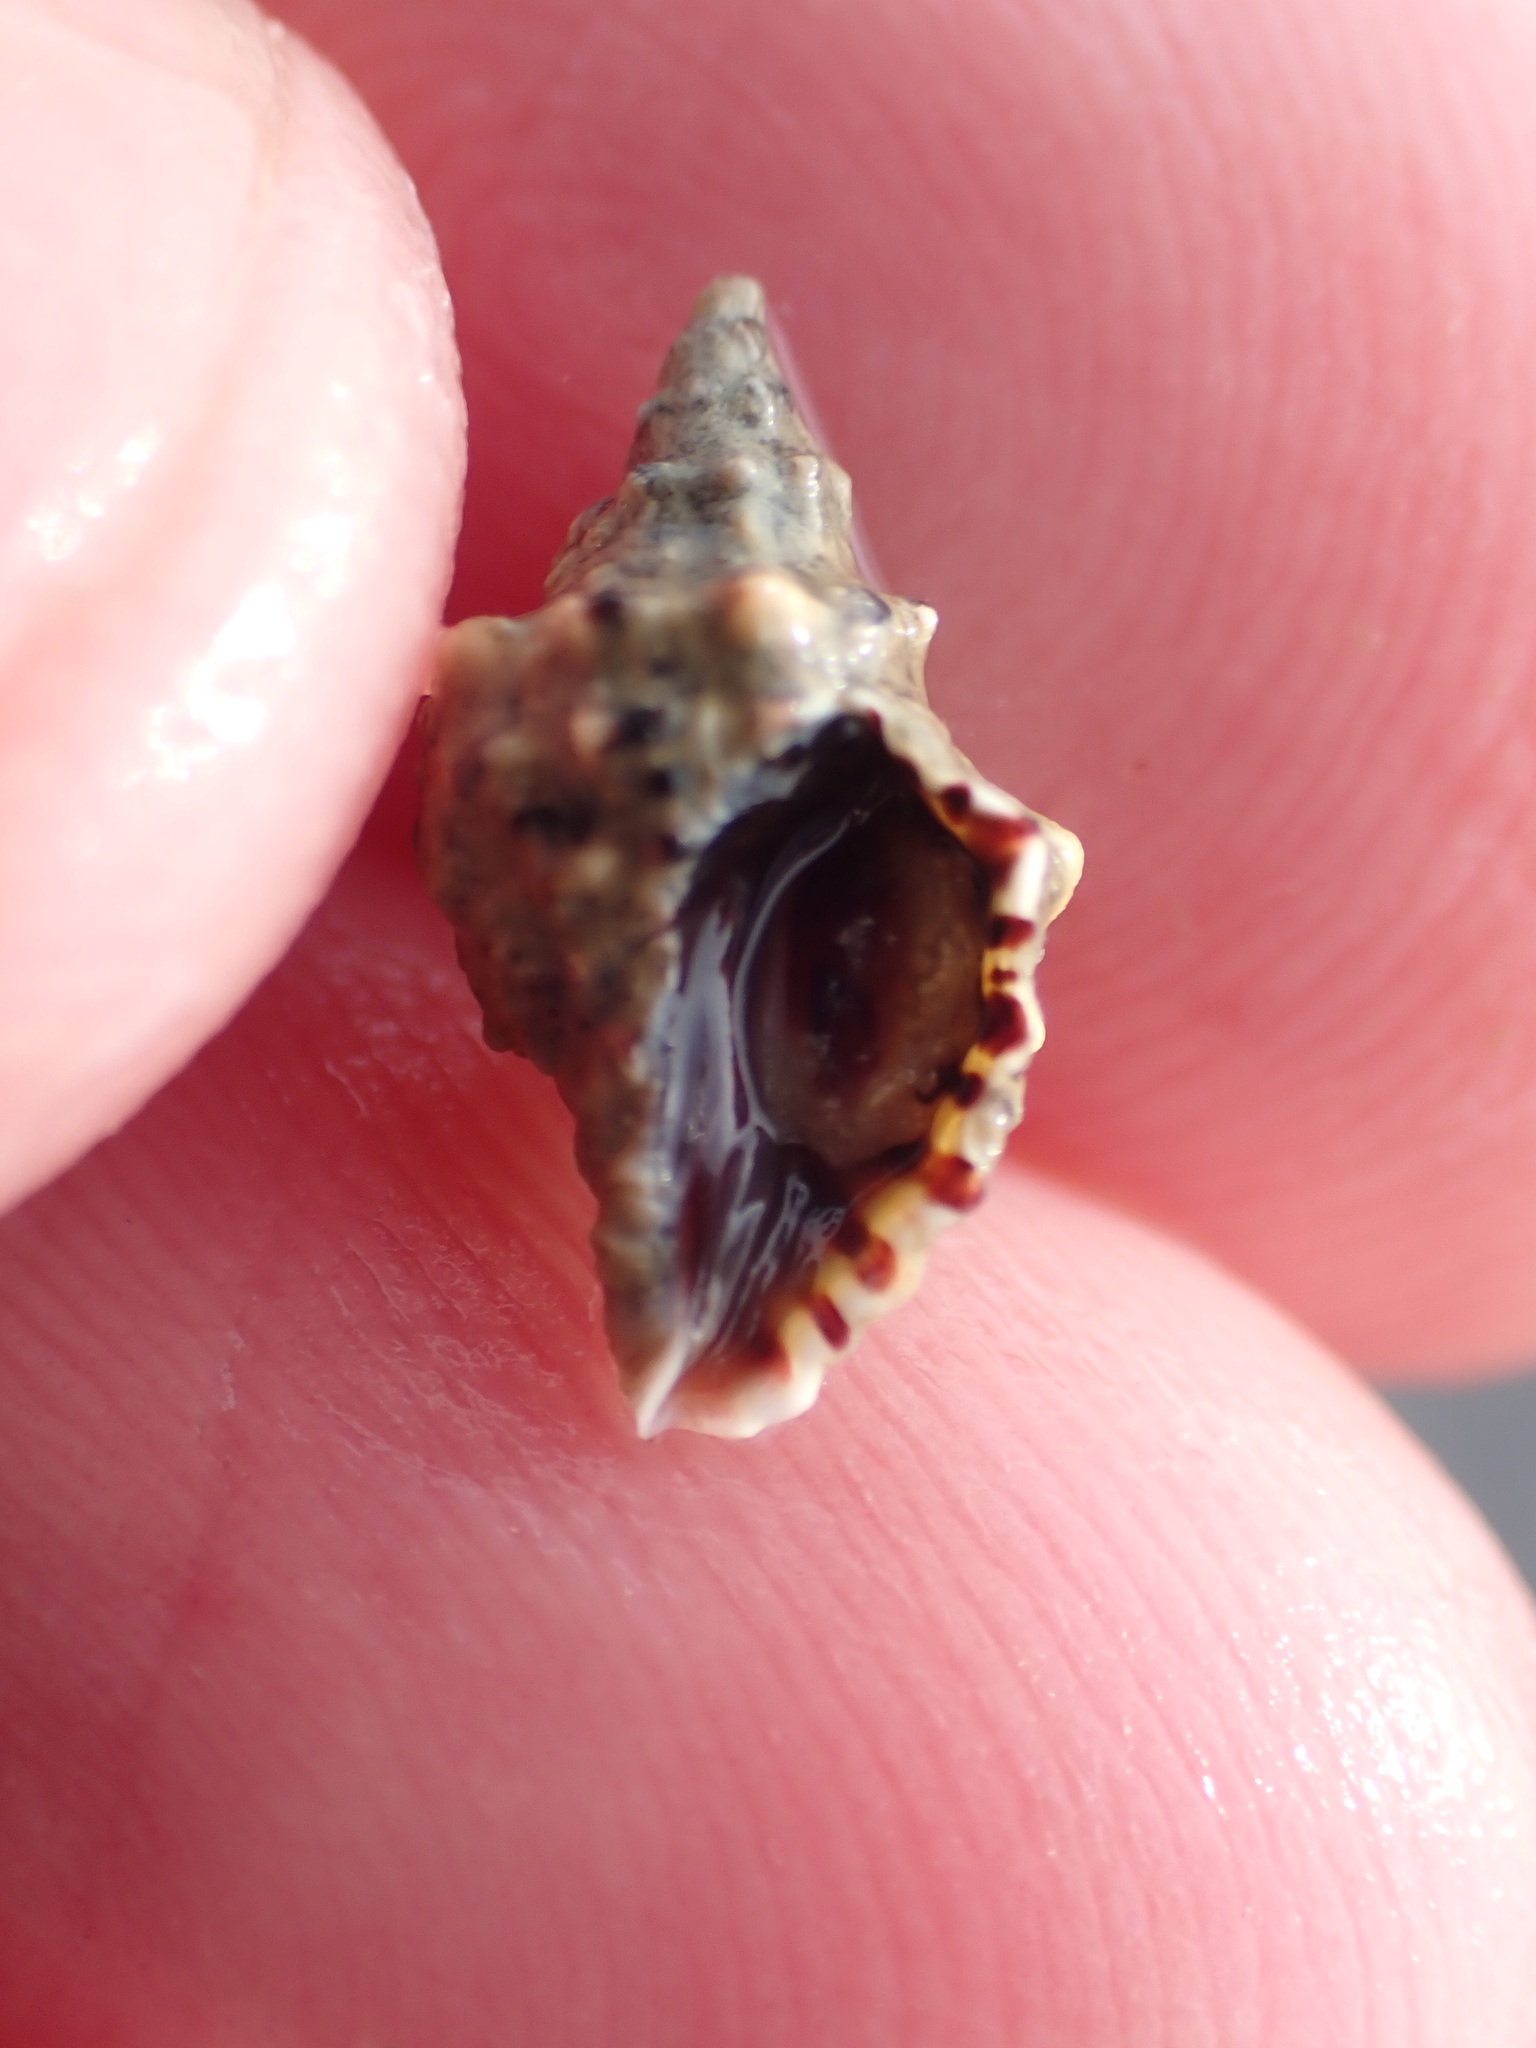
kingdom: Animalia
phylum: Mollusca
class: Gastropoda
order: Neogastropoda
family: Muricidae
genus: Haustrum
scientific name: Haustrum scobina
